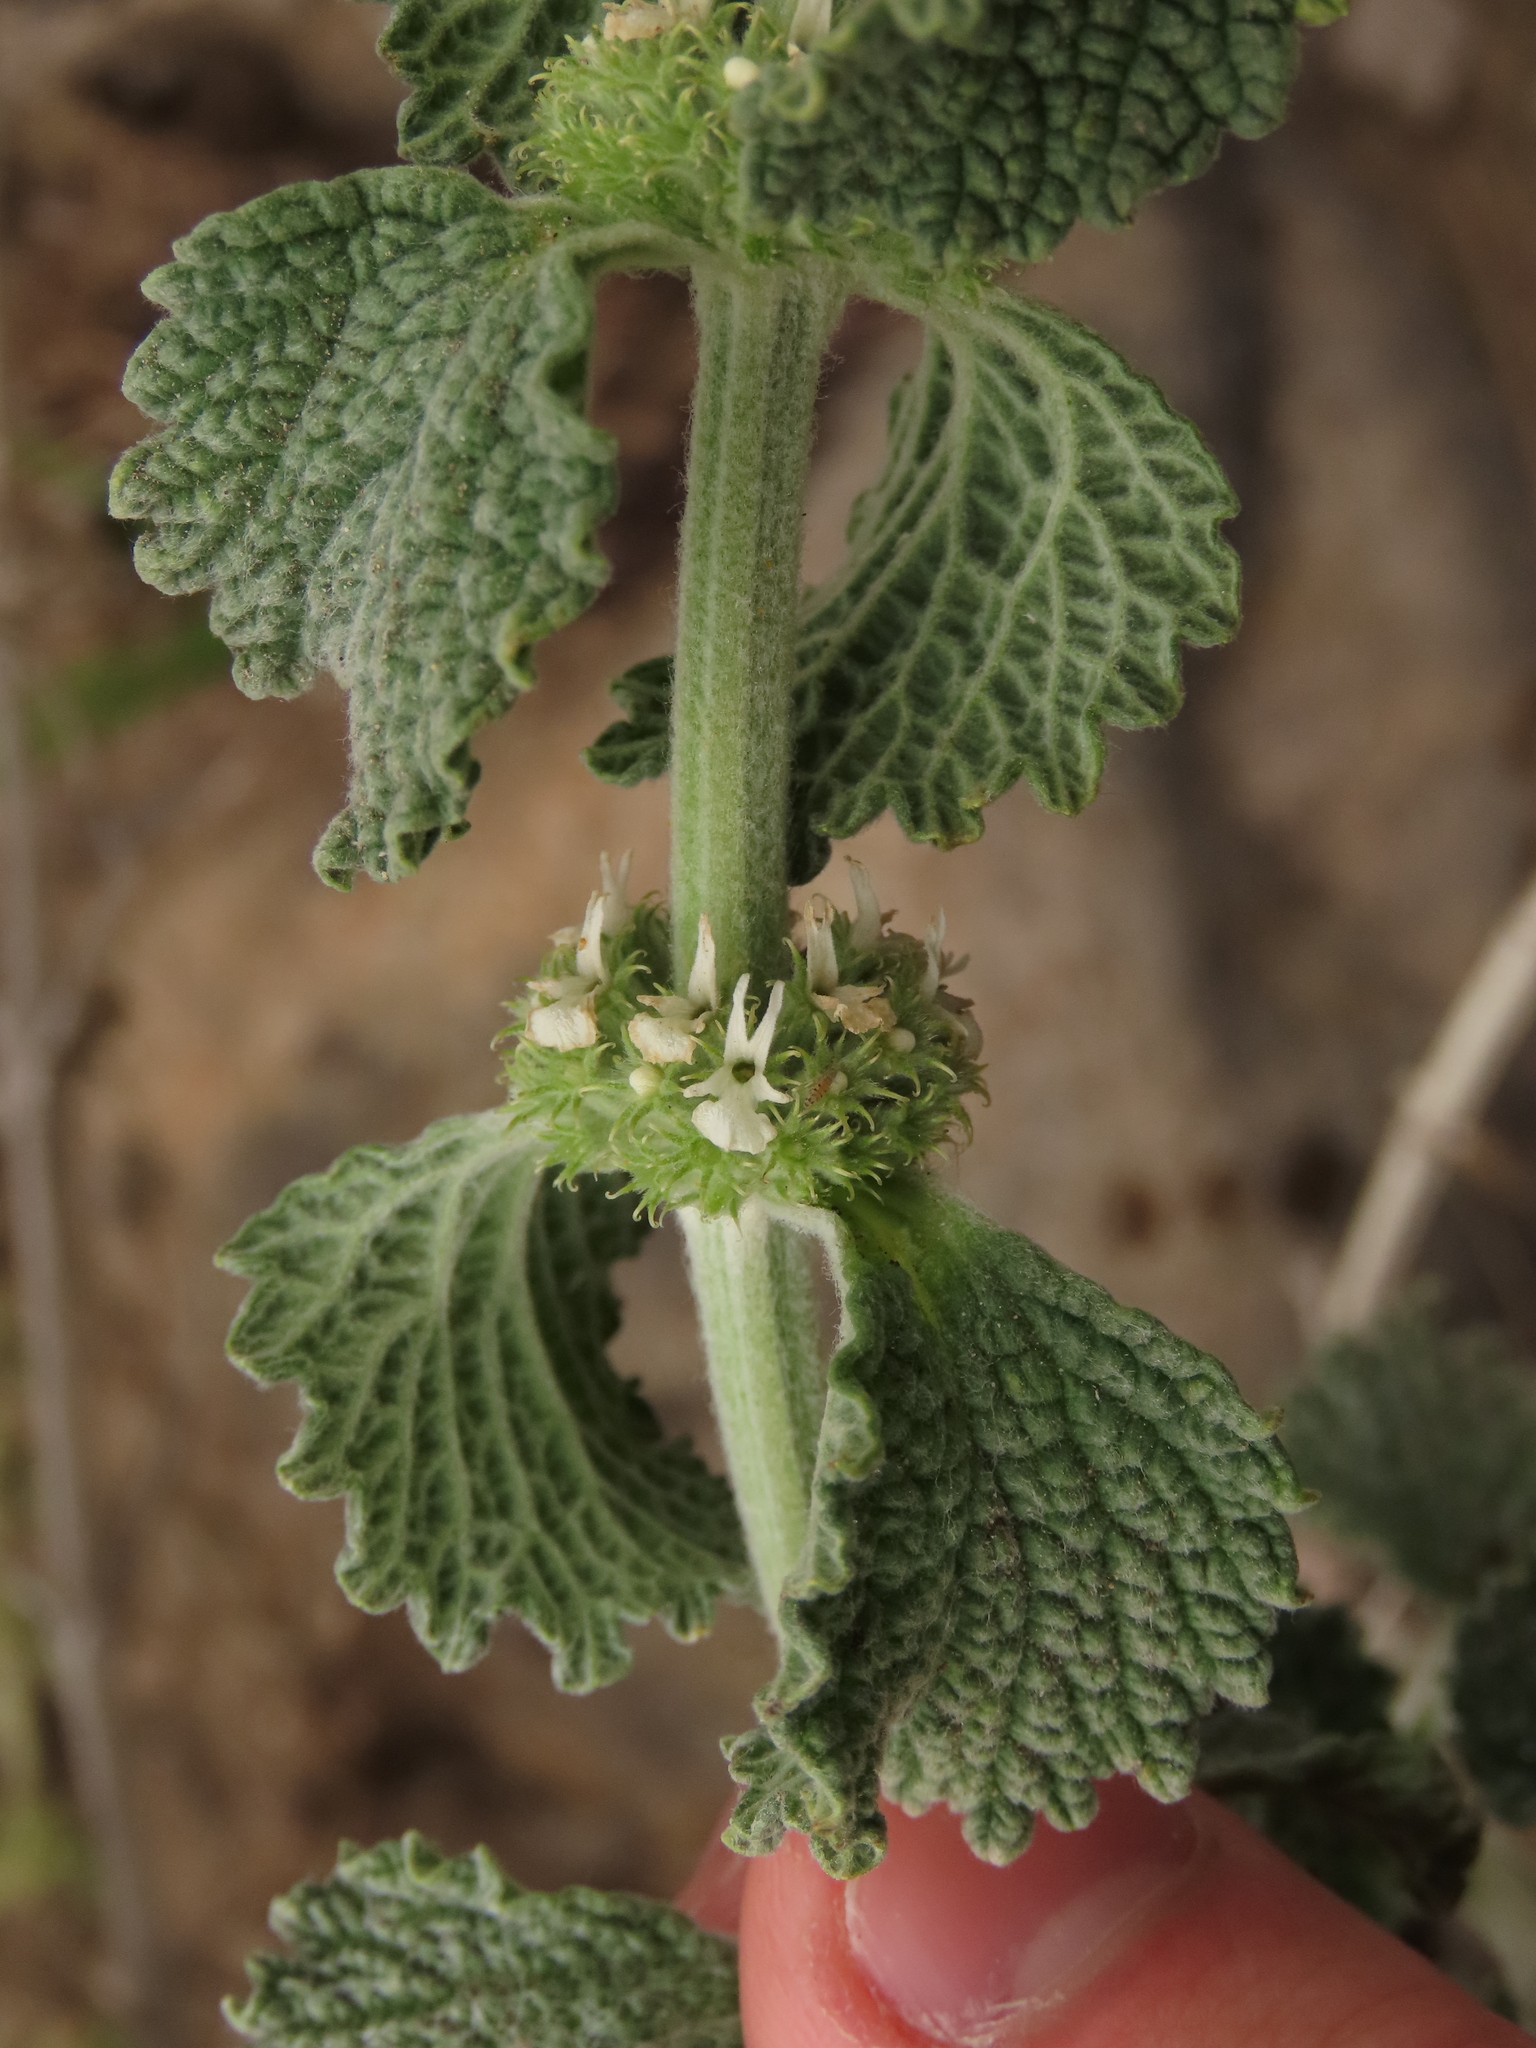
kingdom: Plantae
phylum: Tracheophyta
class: Magnoliopsida
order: Lamiales
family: Lamiaceae
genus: Marrubium
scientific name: Marrubium vulgare
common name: Horehound
